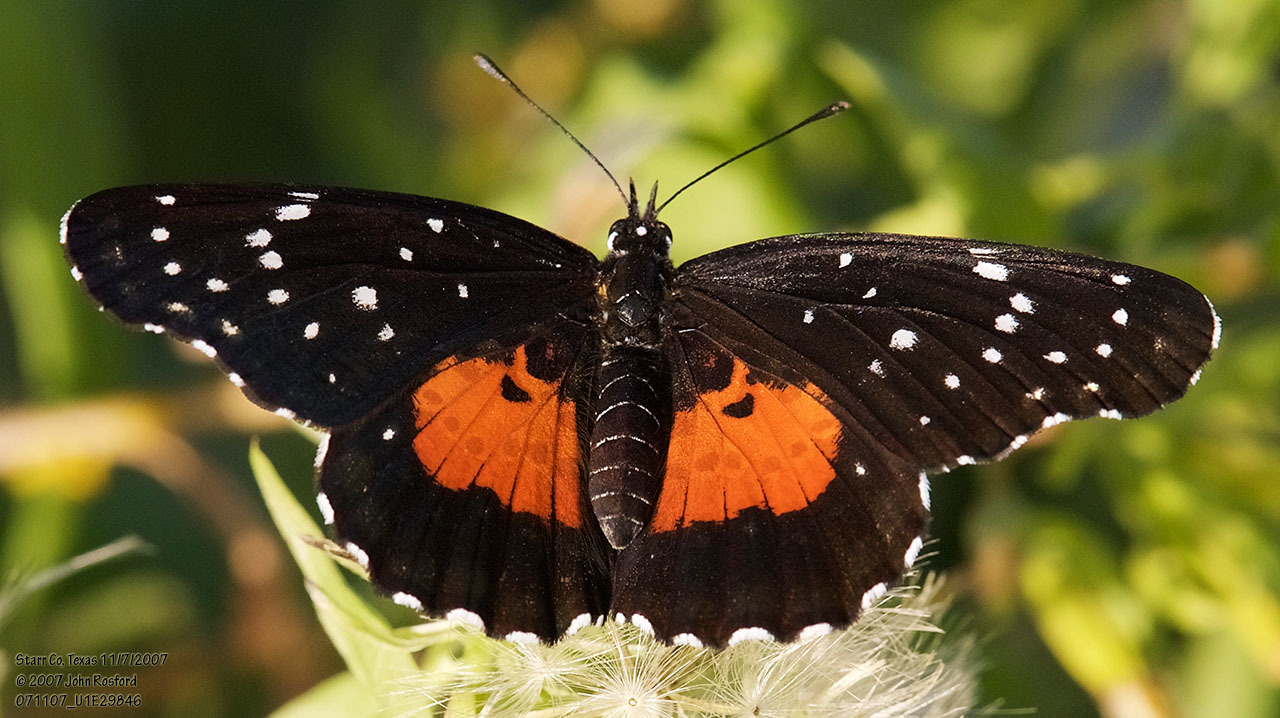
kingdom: Animalia
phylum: Arthropoda
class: Insecta
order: Lepidoptera
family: Nymphalidae
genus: Chlosyne
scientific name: Chlosyne janais
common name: Crimson patch
